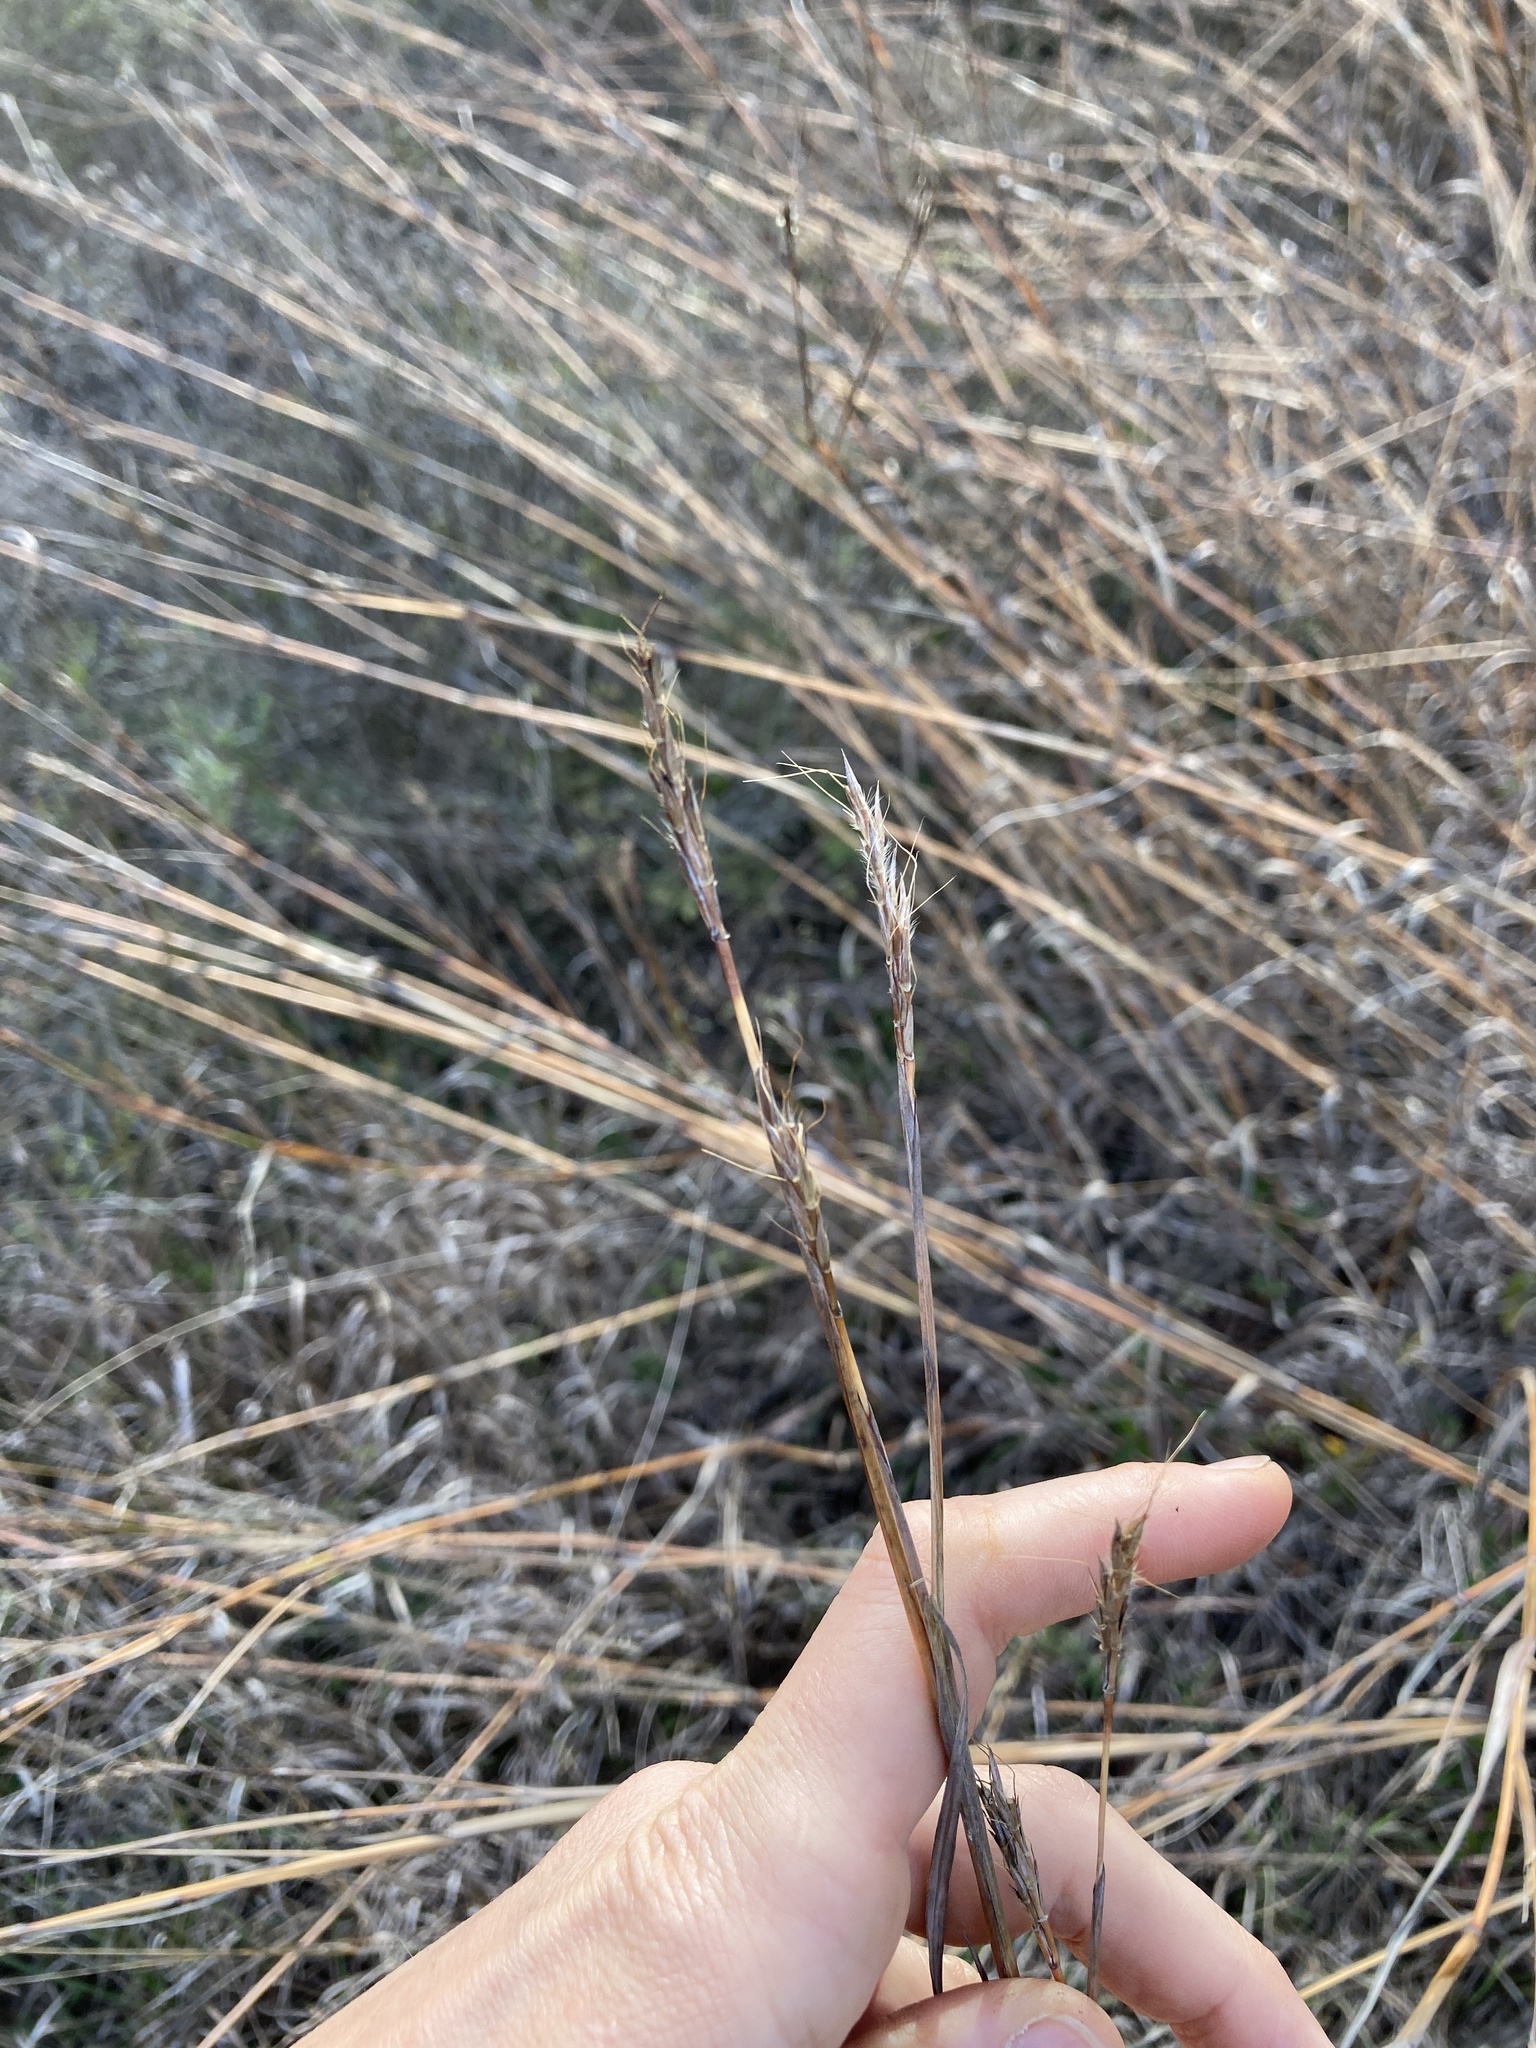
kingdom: Plantae
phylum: Tracheophyta
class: Liliopsida
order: Poales
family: Poaceae
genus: Andropogon
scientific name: Andropogon gerardi
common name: Big bluestem
